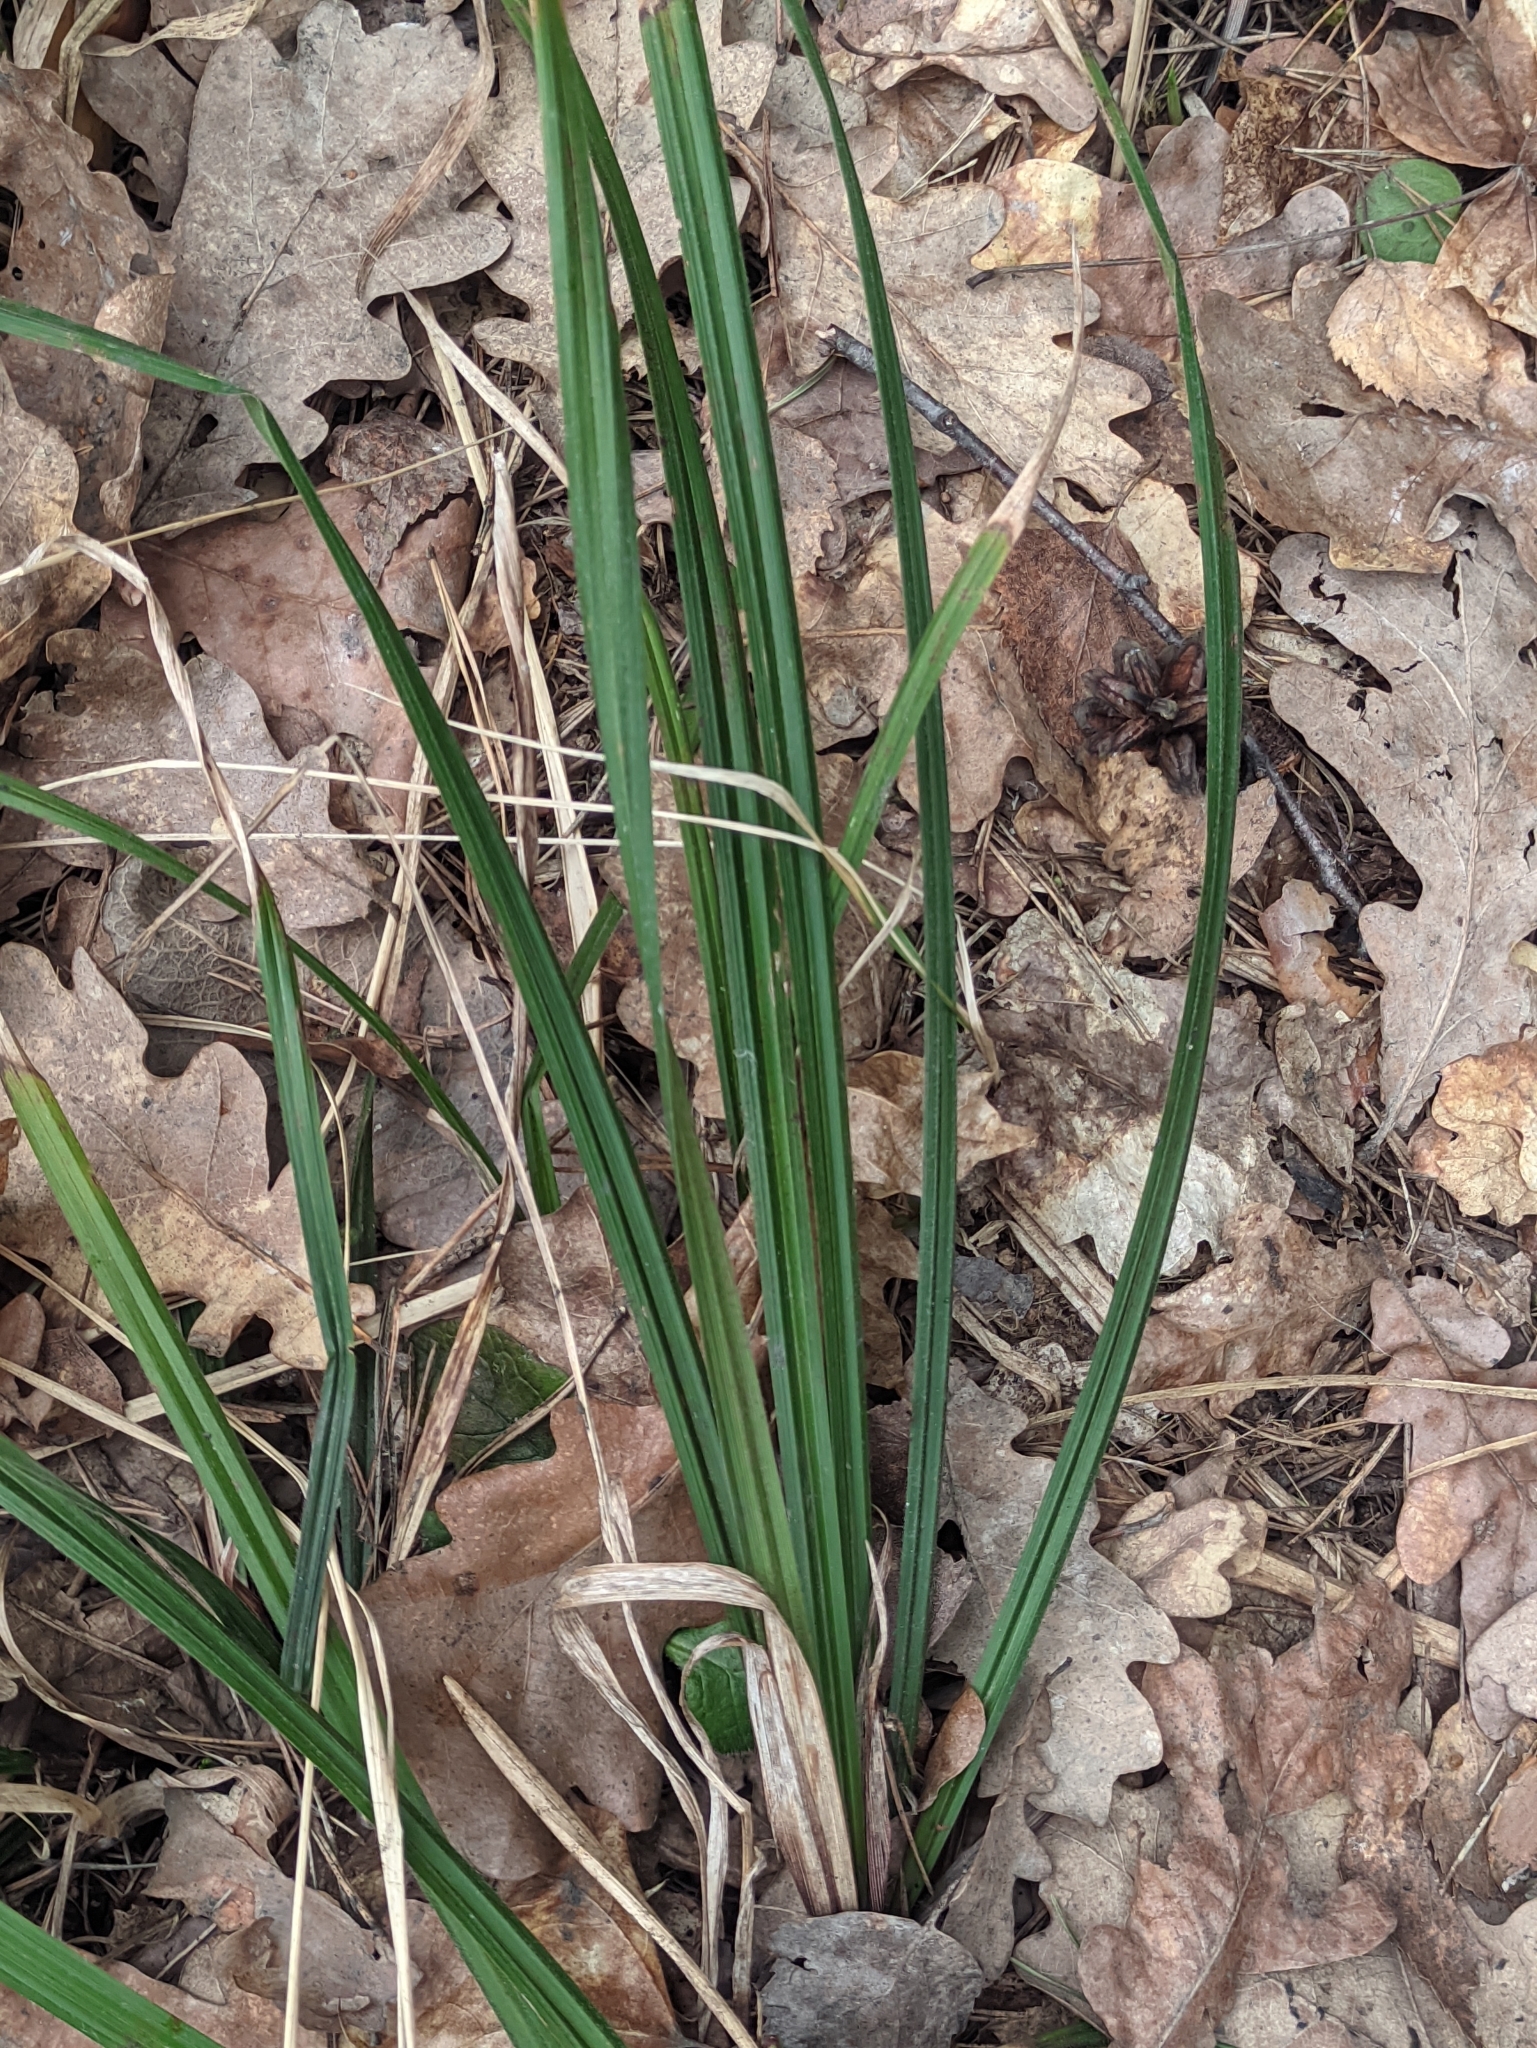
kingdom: Plantae
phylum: Tracheophyta
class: Liliopsida
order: Poales
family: Cyperaceae
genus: Carex
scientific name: Carex pilosa
